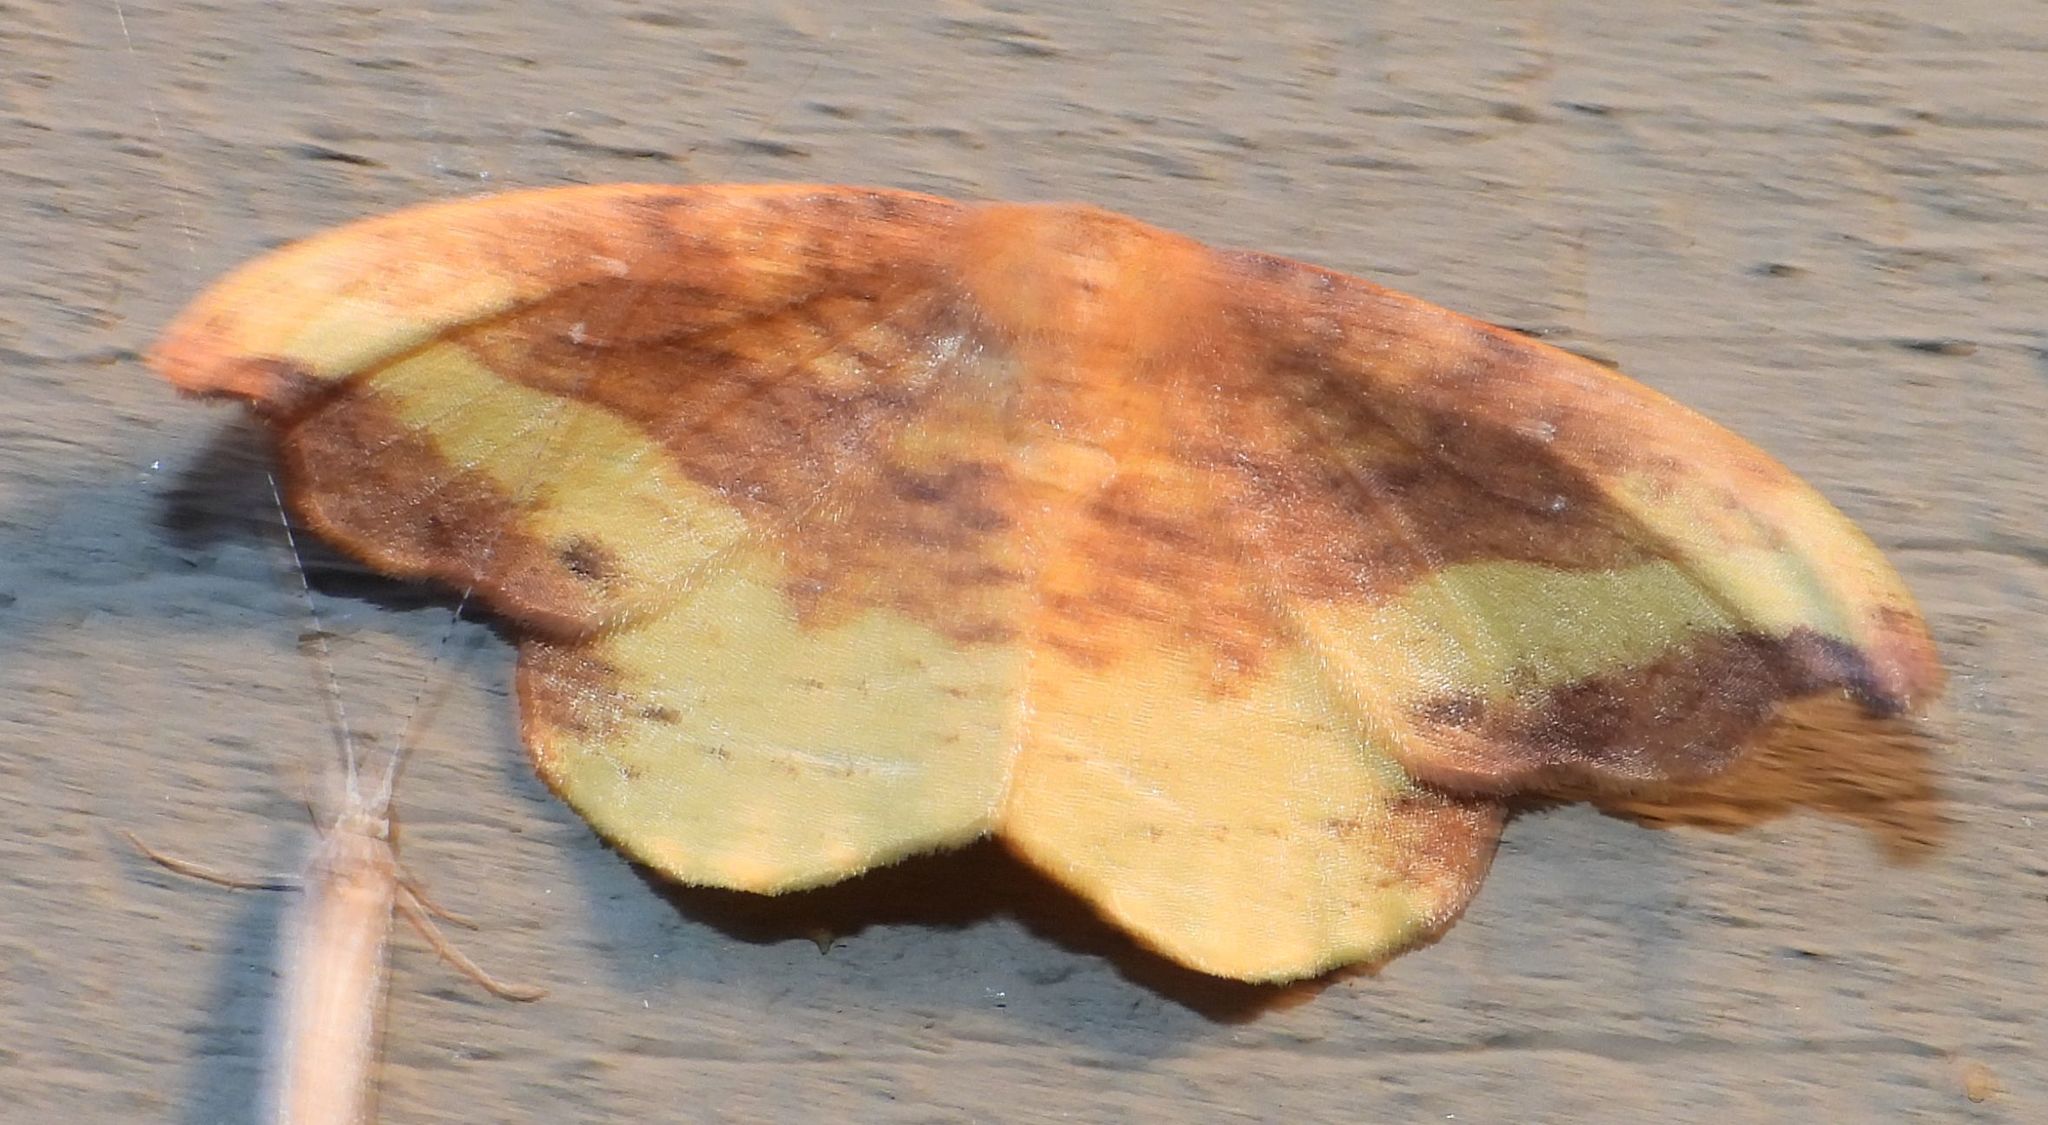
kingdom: Animalia
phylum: Arthropoda
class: Insecta
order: Lepidoptera
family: Drepanidae
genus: Oreta
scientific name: Oreta rosea
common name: Rose hooktip
